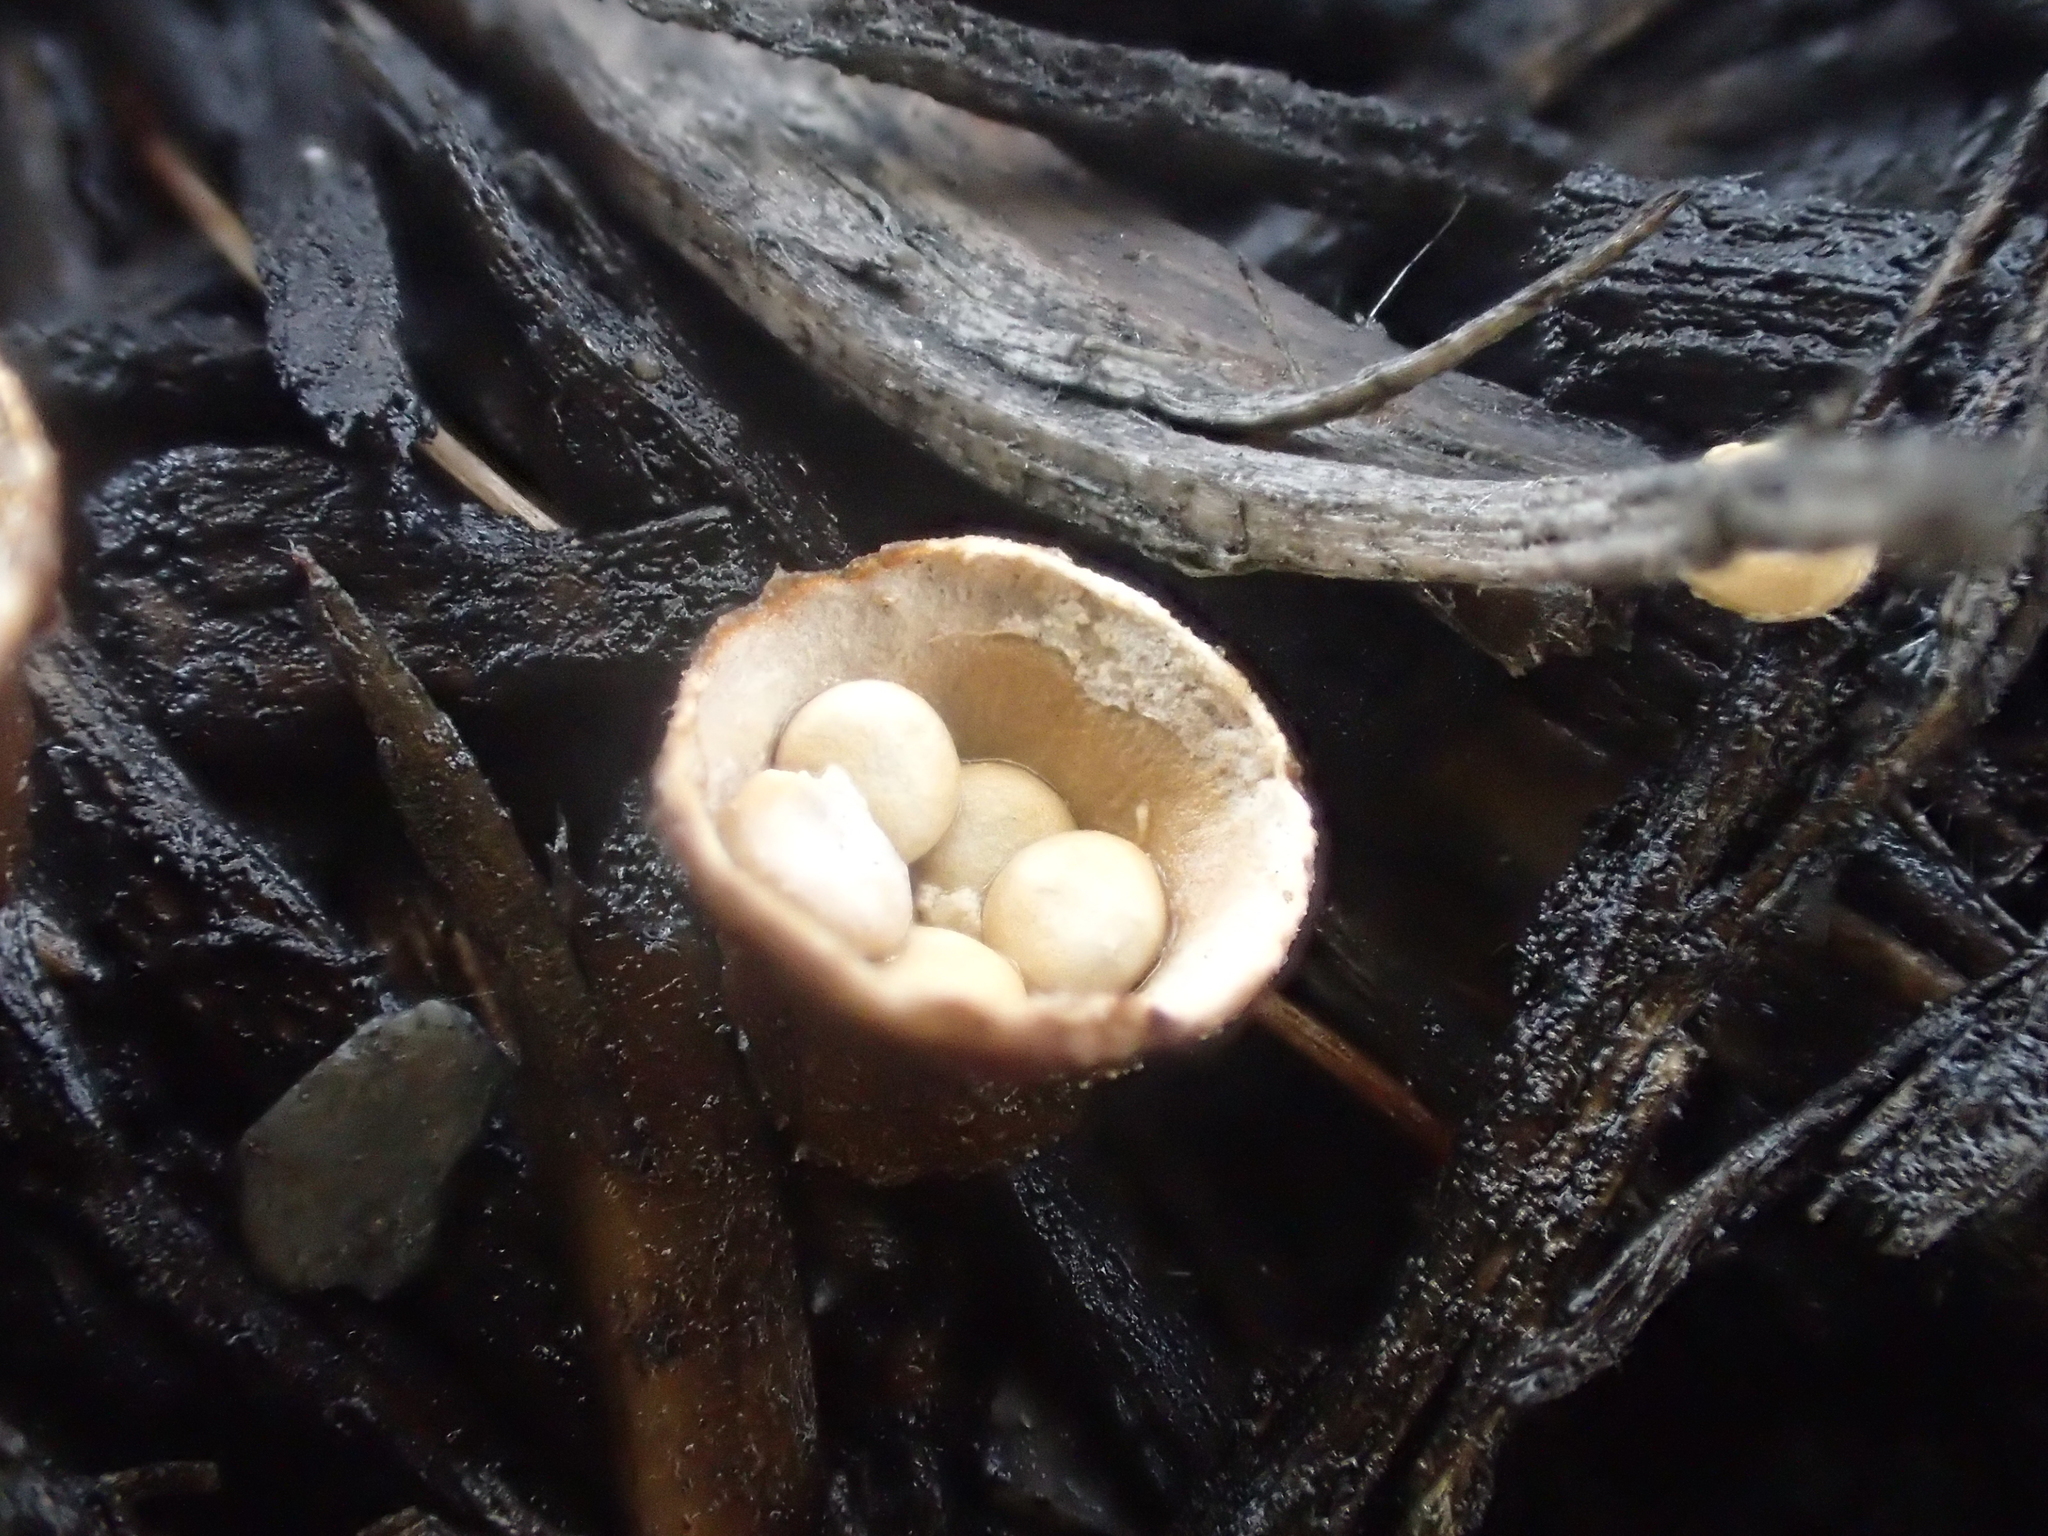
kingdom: Fungi
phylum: Basidiomycota
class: Agaricomycetes
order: Agaricales
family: Nidulariaceae
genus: Crucibulum
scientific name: Crucibulum laeve
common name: Common bird's nest
